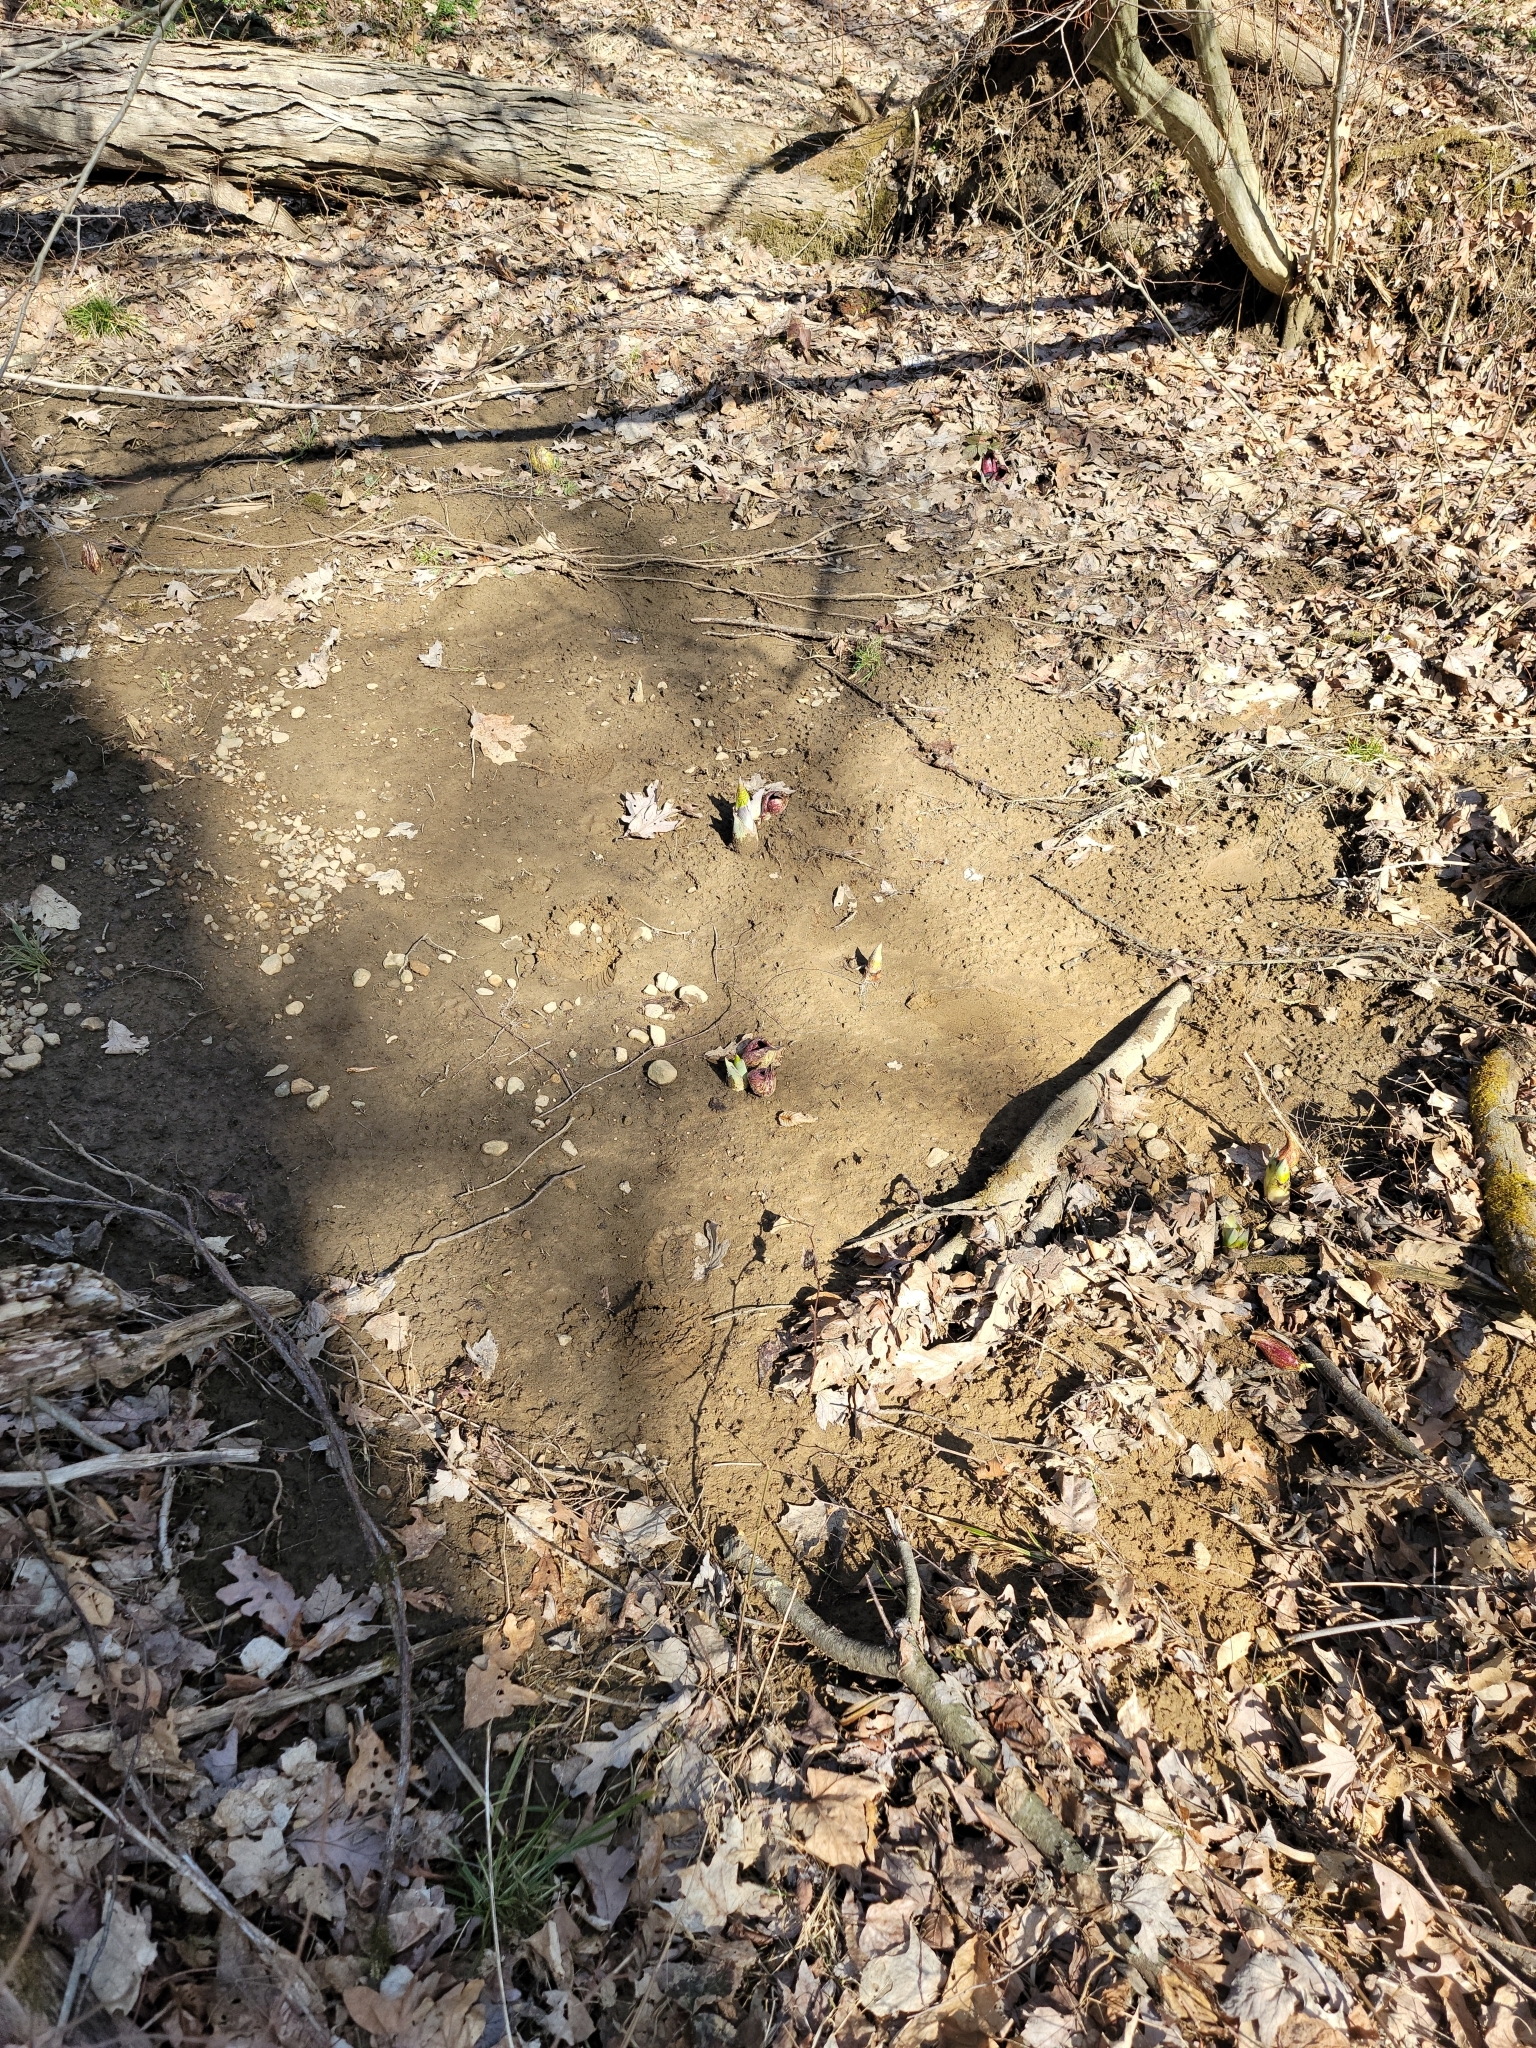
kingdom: Plantae
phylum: Tracheophyta
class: Liliopsida
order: Alismatales
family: Araceae
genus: Symplocarpus
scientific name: Symplocarpus foetidus
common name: Eastern skunk cabbage
